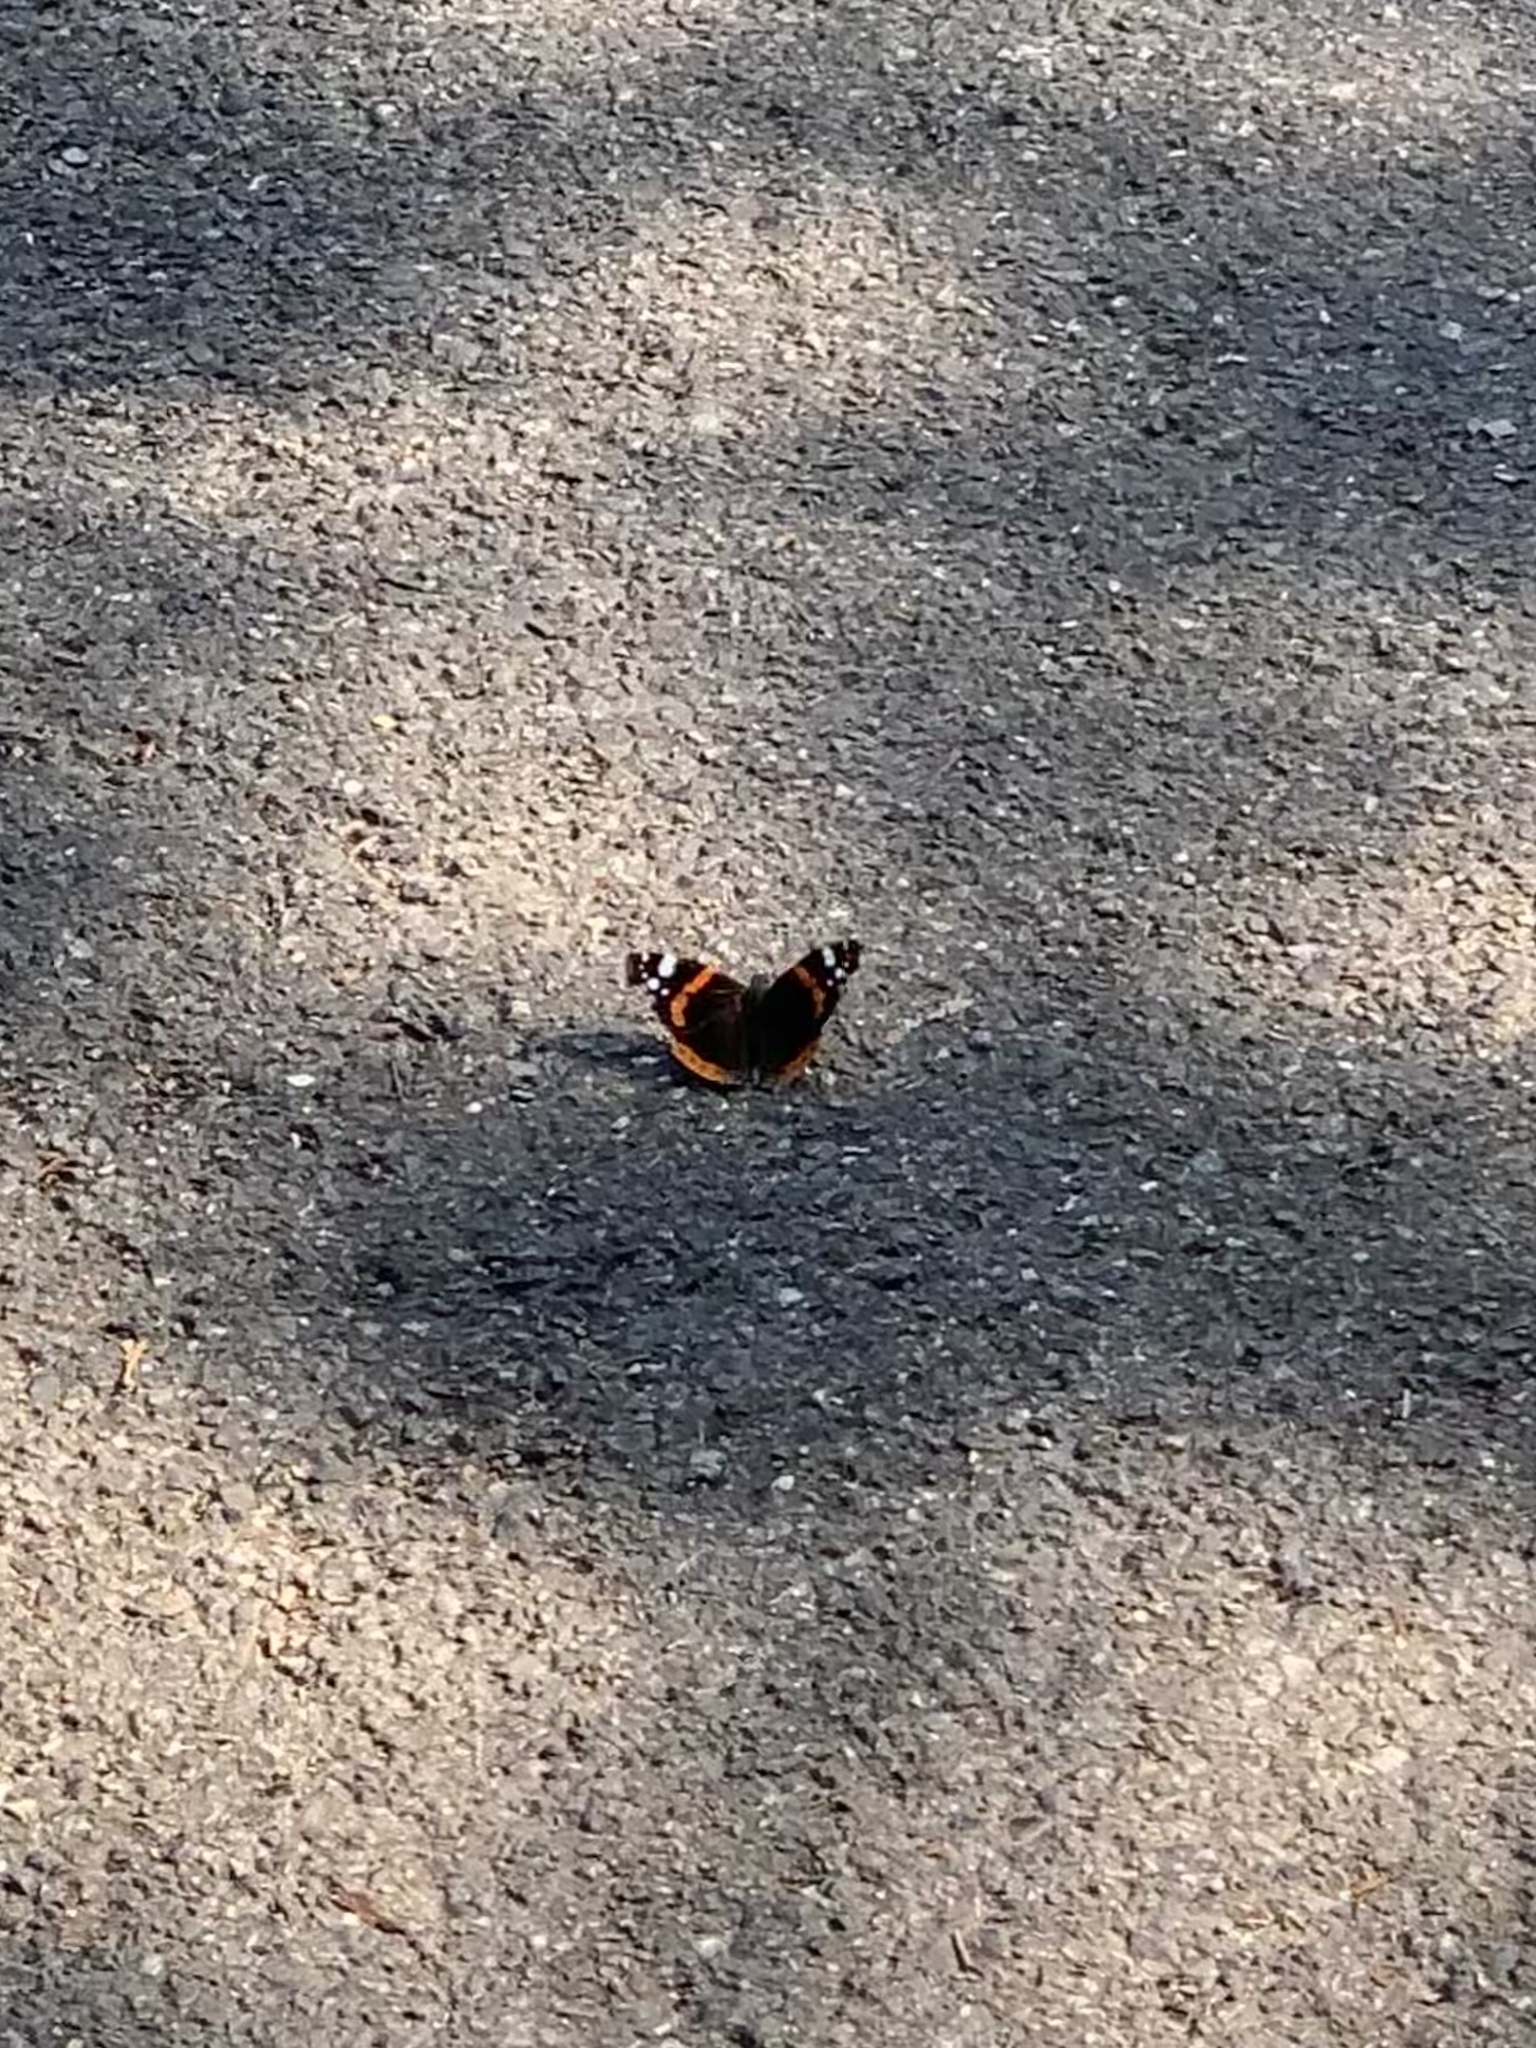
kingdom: Animalia
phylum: Arthropoda
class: Insecta
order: Lepidoptera
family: Nymphalidae
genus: Vanessa
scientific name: Vanessa atalanta
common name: Red admiral
